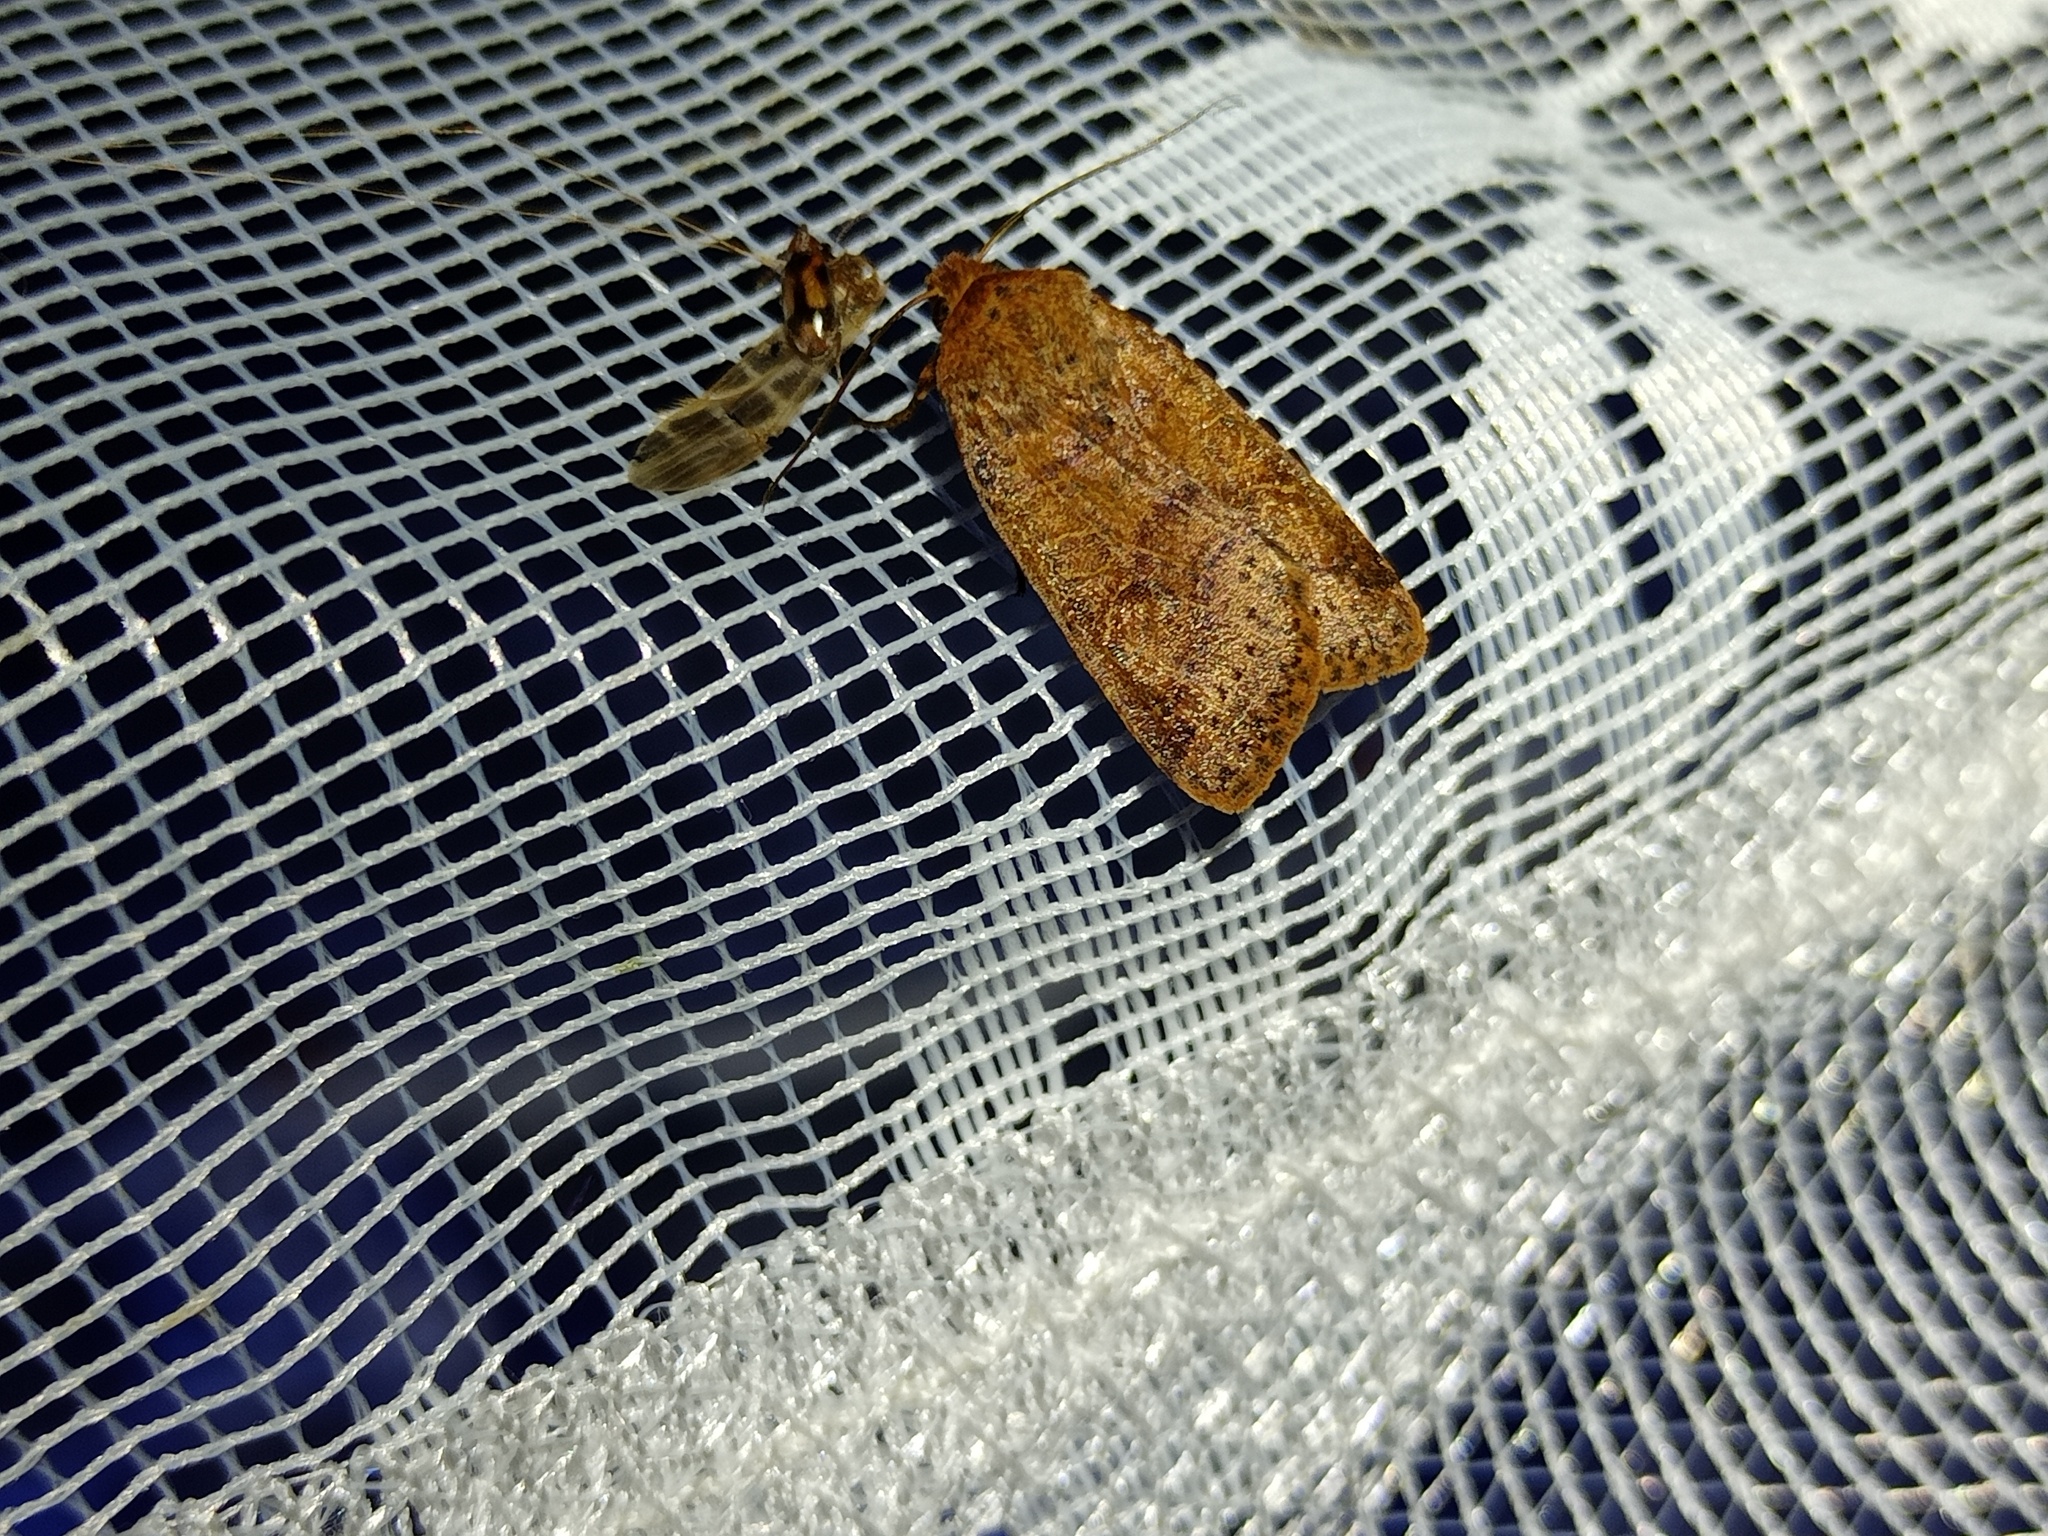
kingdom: Animalia
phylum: Arthropoda
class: Insecta
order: Lepidoptera
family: Noctuidae
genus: Agrochola
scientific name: Agrochola nitida
